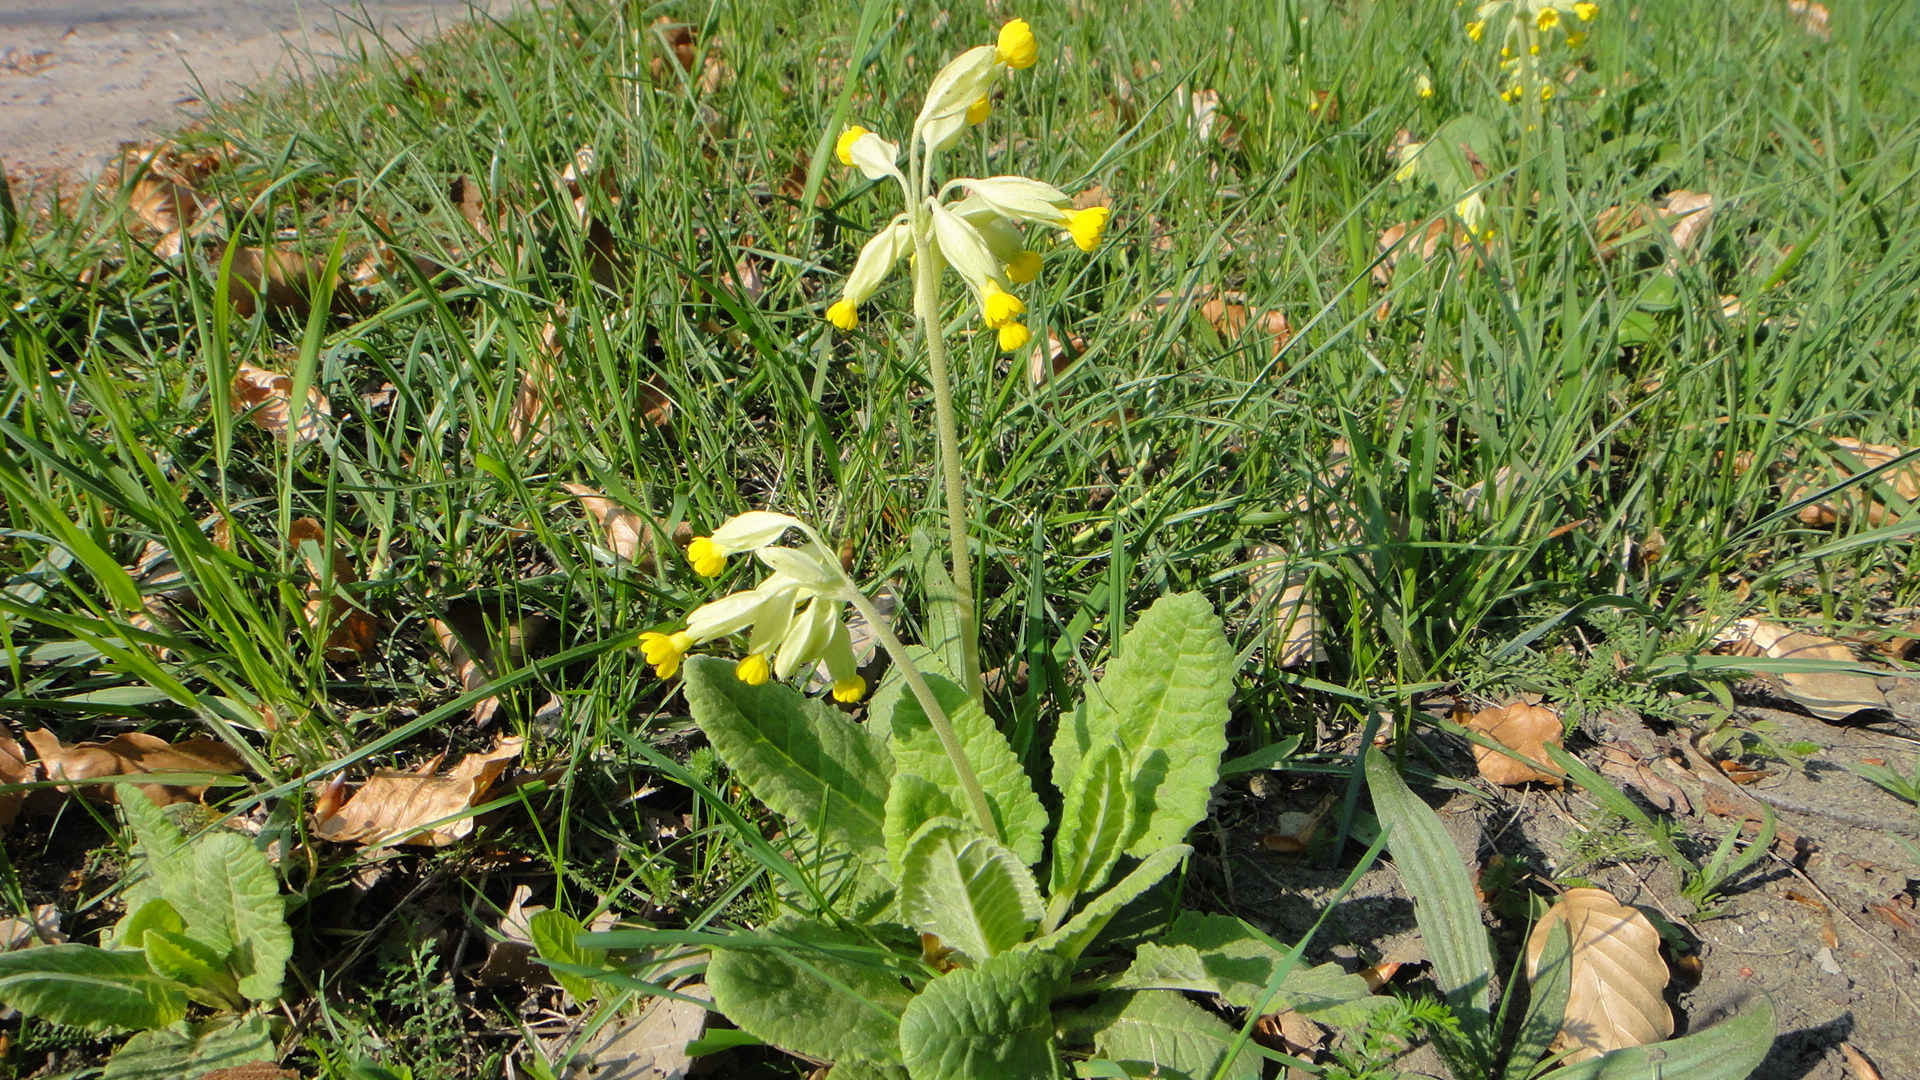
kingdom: Plantae
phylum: Tracheophyta
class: Magnoliopsida
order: Ericales
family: Primulaceae
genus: Primula
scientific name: Primula veris
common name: Cowslip
